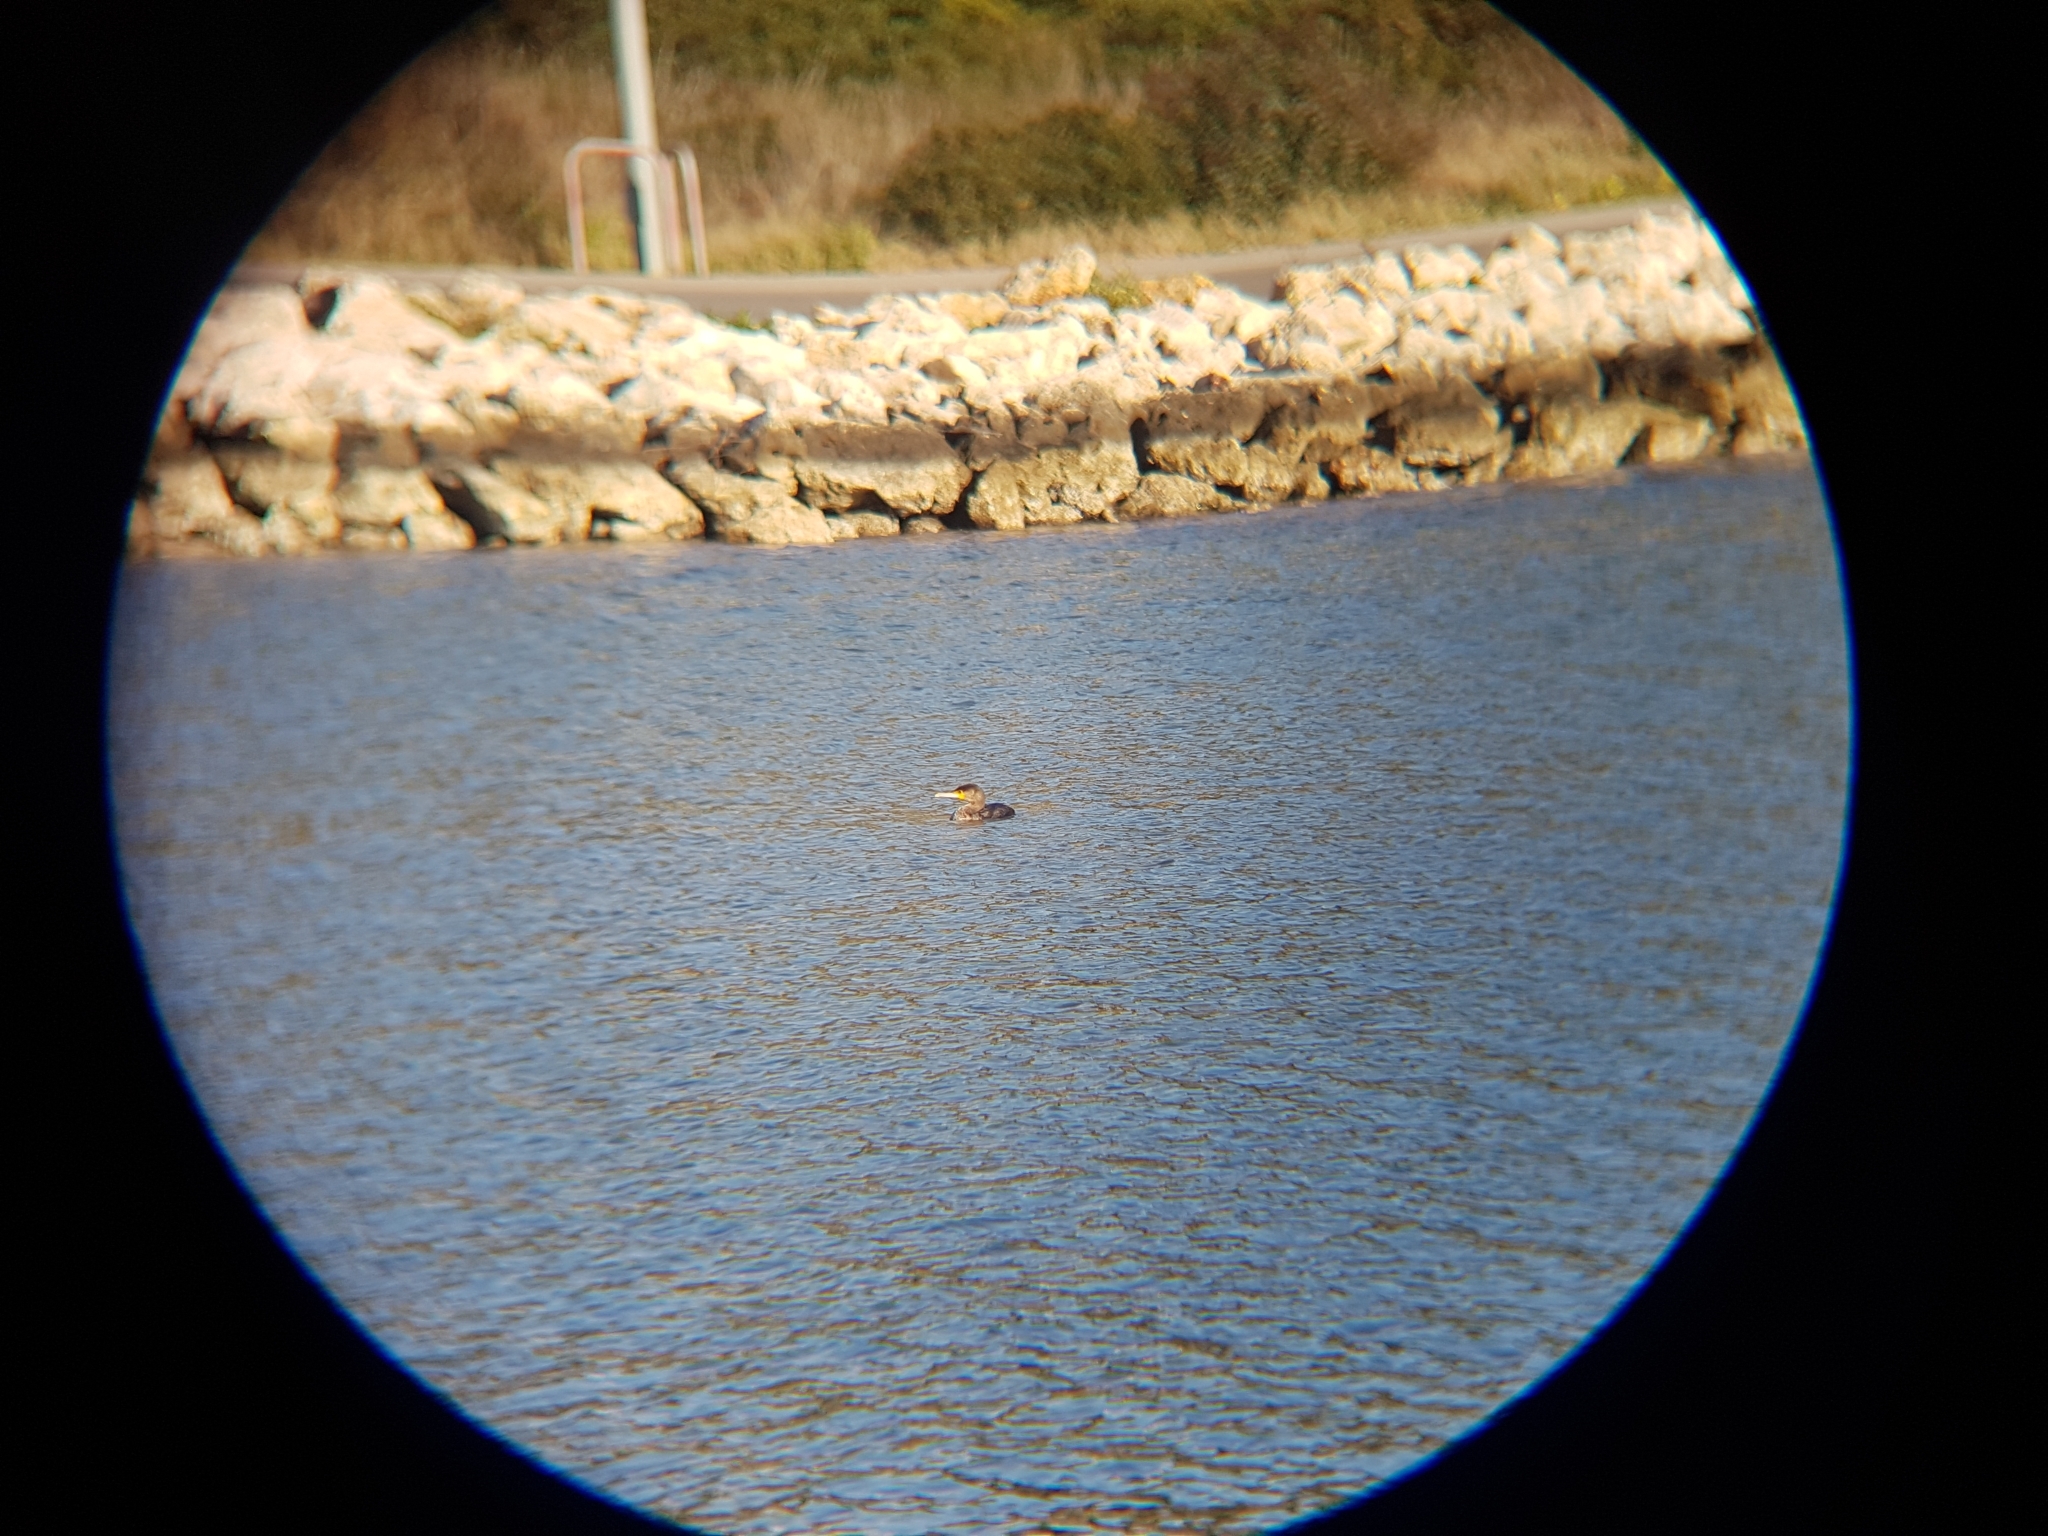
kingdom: Animalia
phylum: Chordata
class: Aves
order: Suliformes
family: Phalacrocoracidae
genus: Phalacrocorax
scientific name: Phalacrocorax carbo
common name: Great cormorant
